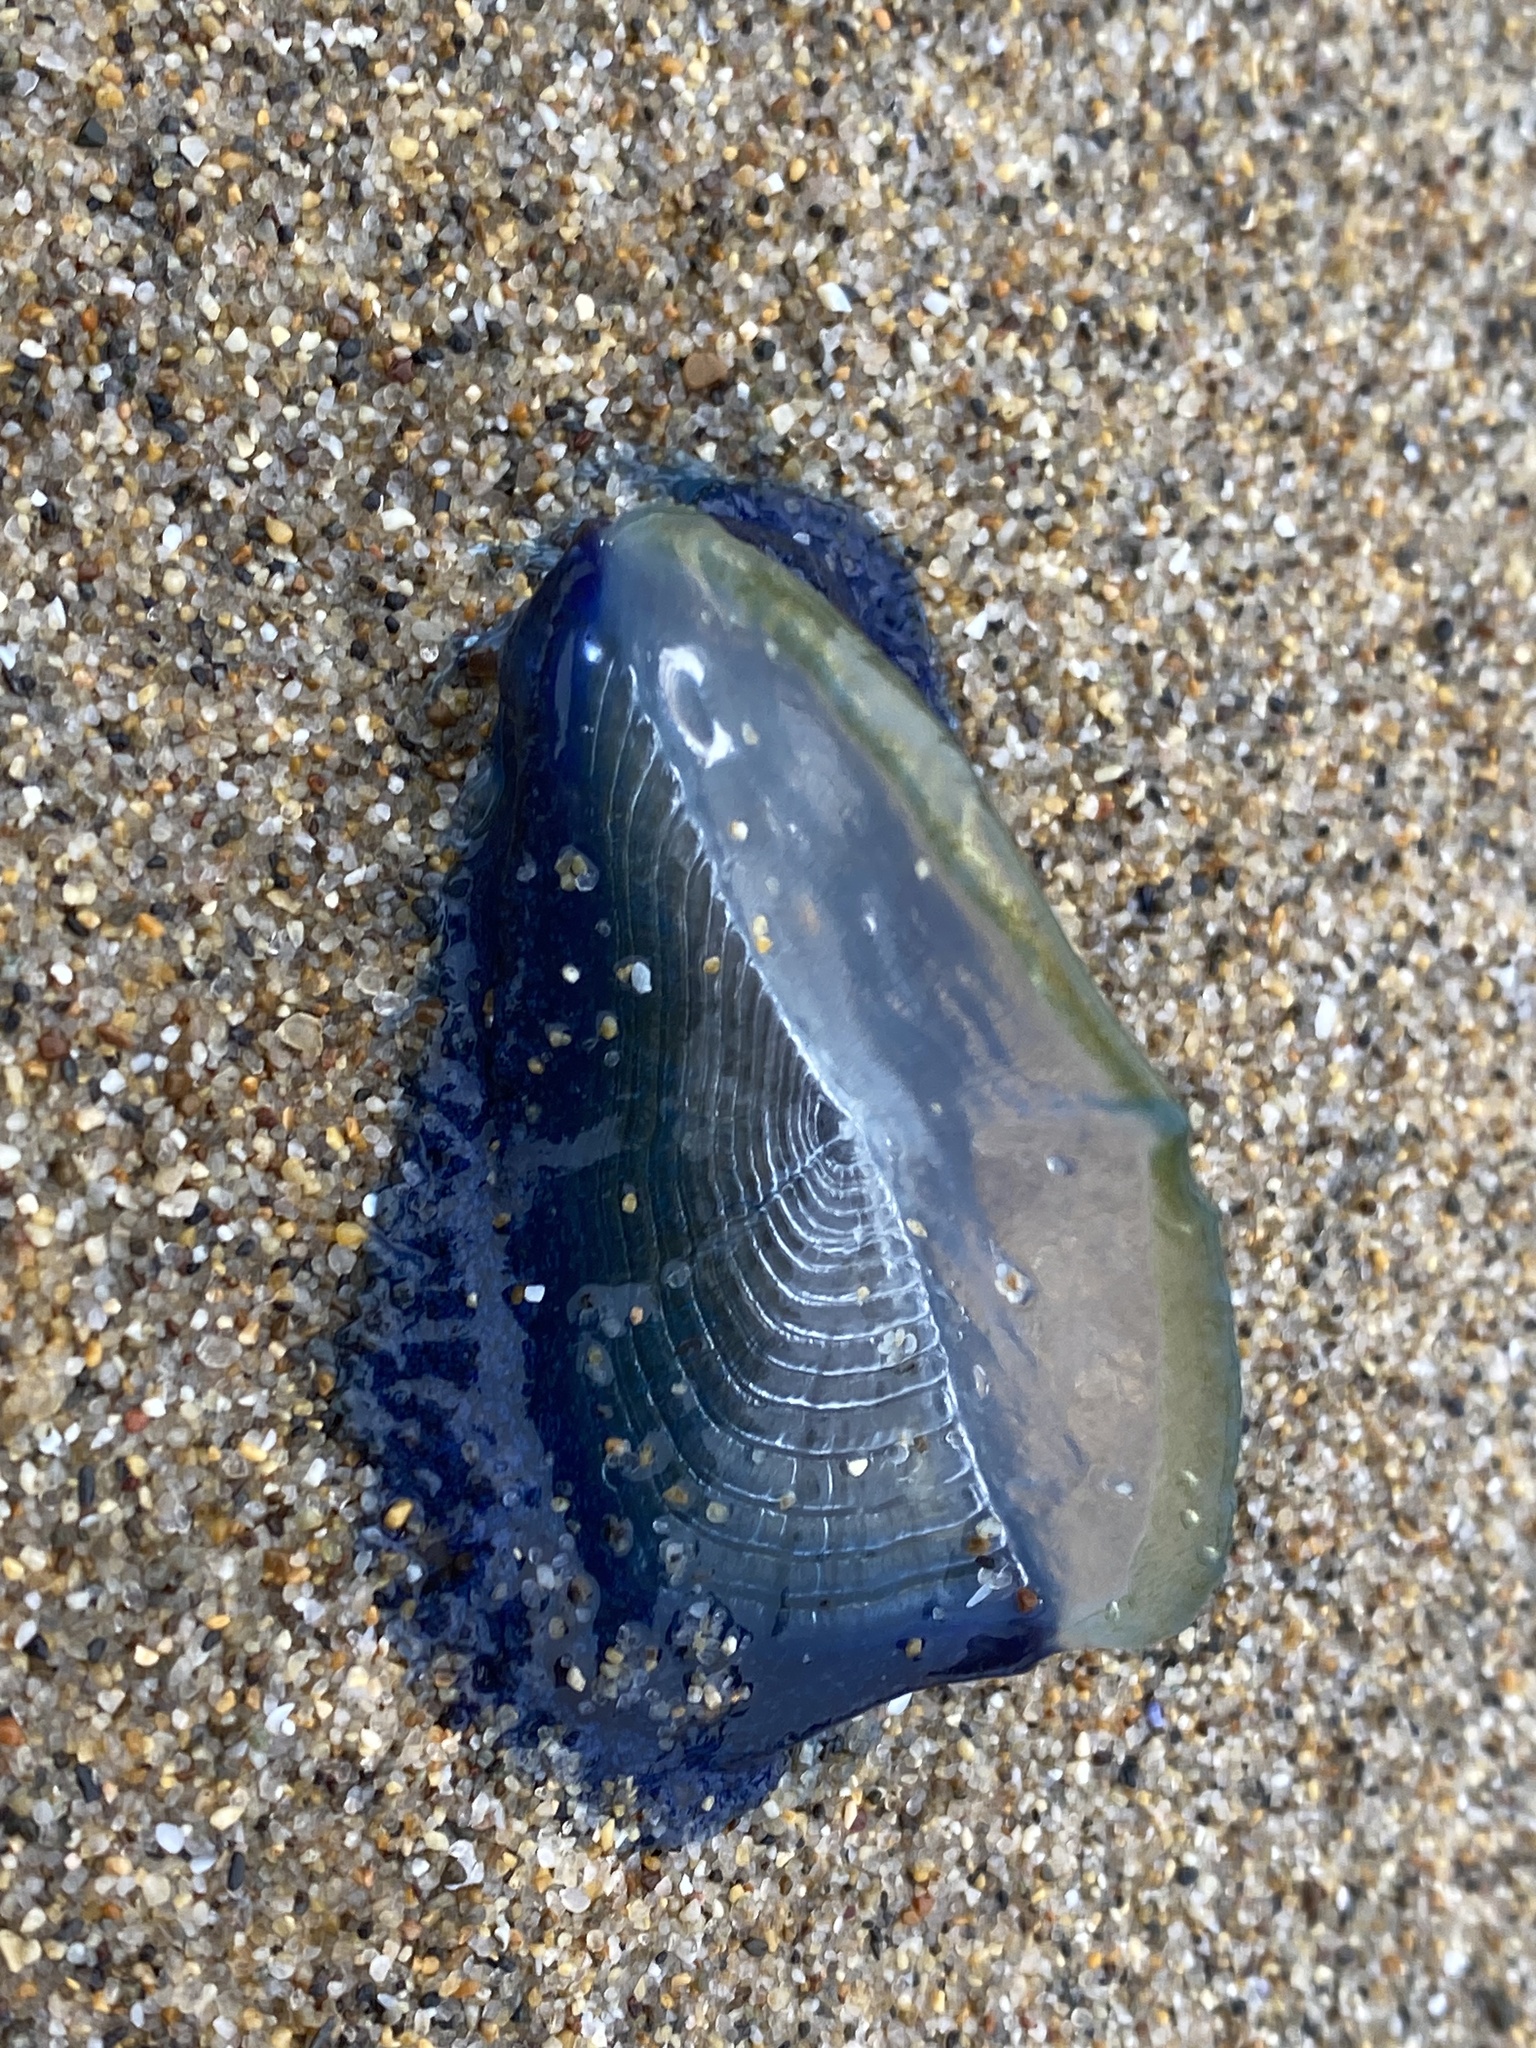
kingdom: Animalia
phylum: Cnidaria
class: Hydrozoa
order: Anthoathecata
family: Porpitidae
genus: Velella
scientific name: Velella velella
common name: By-the-wind-sailor
